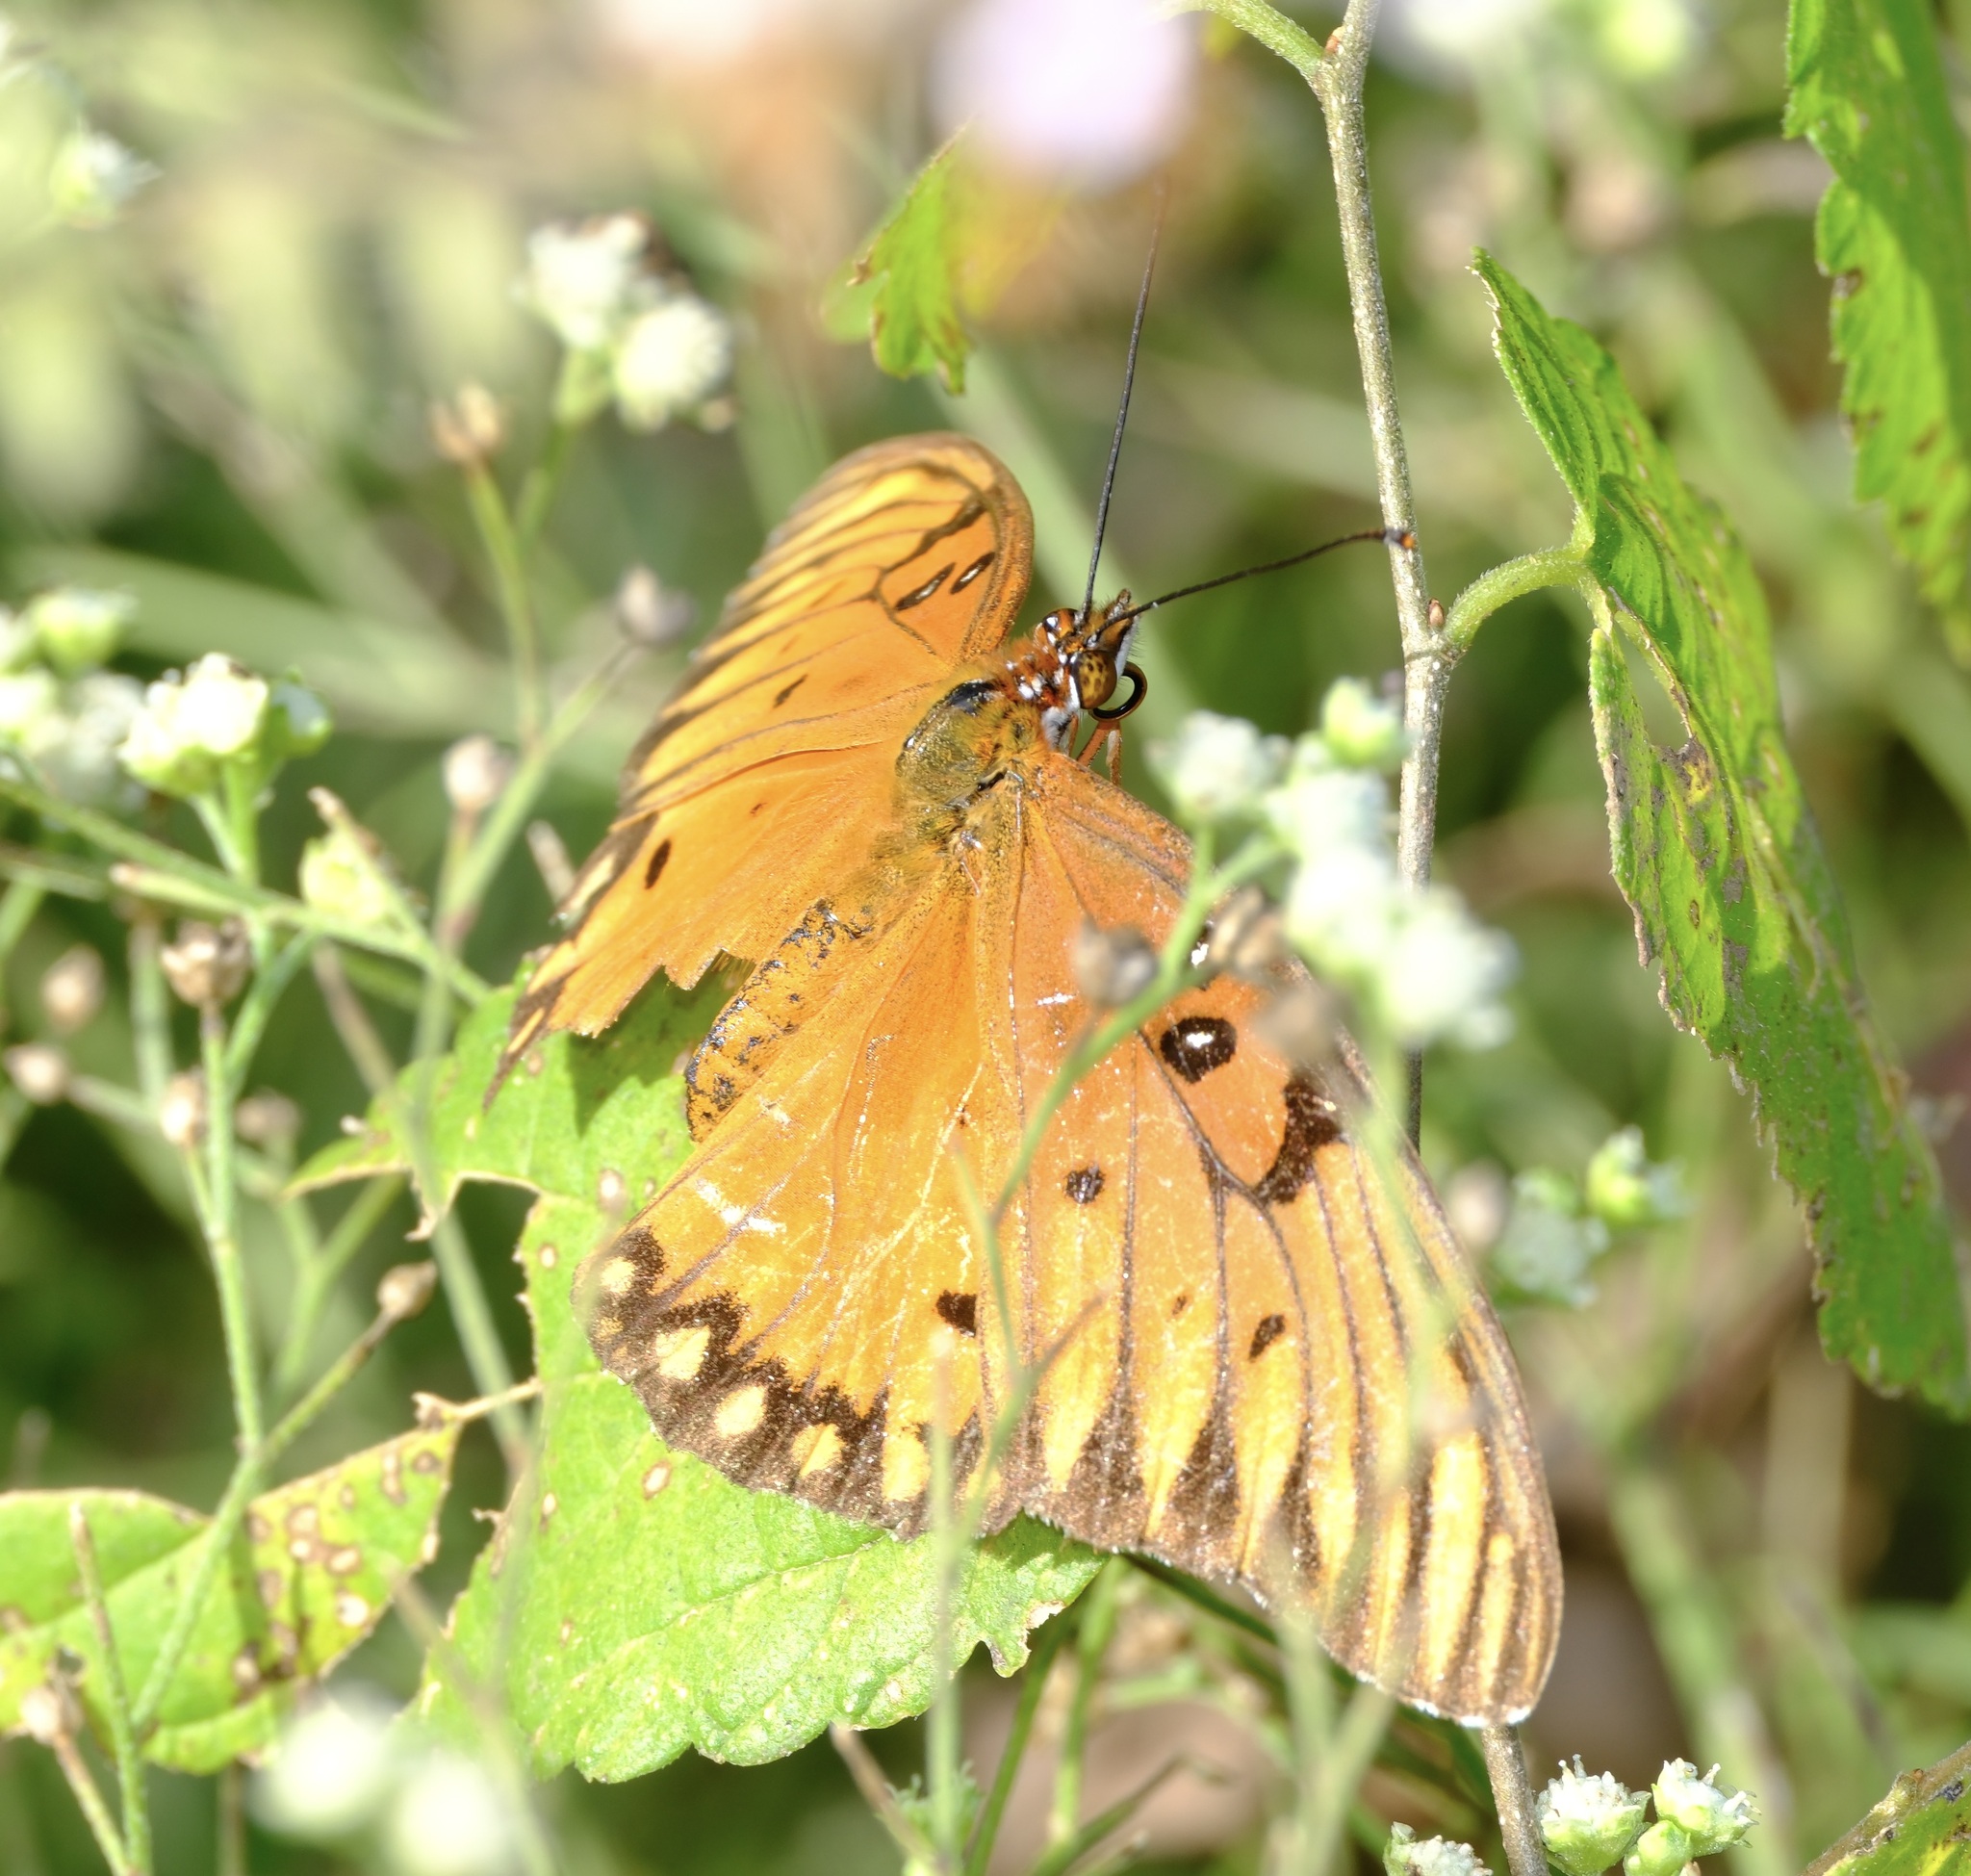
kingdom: Animalia
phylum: Arthropoda
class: Insecta
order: Lepidoptera
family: Nymphalidae
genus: Dione
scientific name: Dione vanillae
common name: Gulf fritillary
